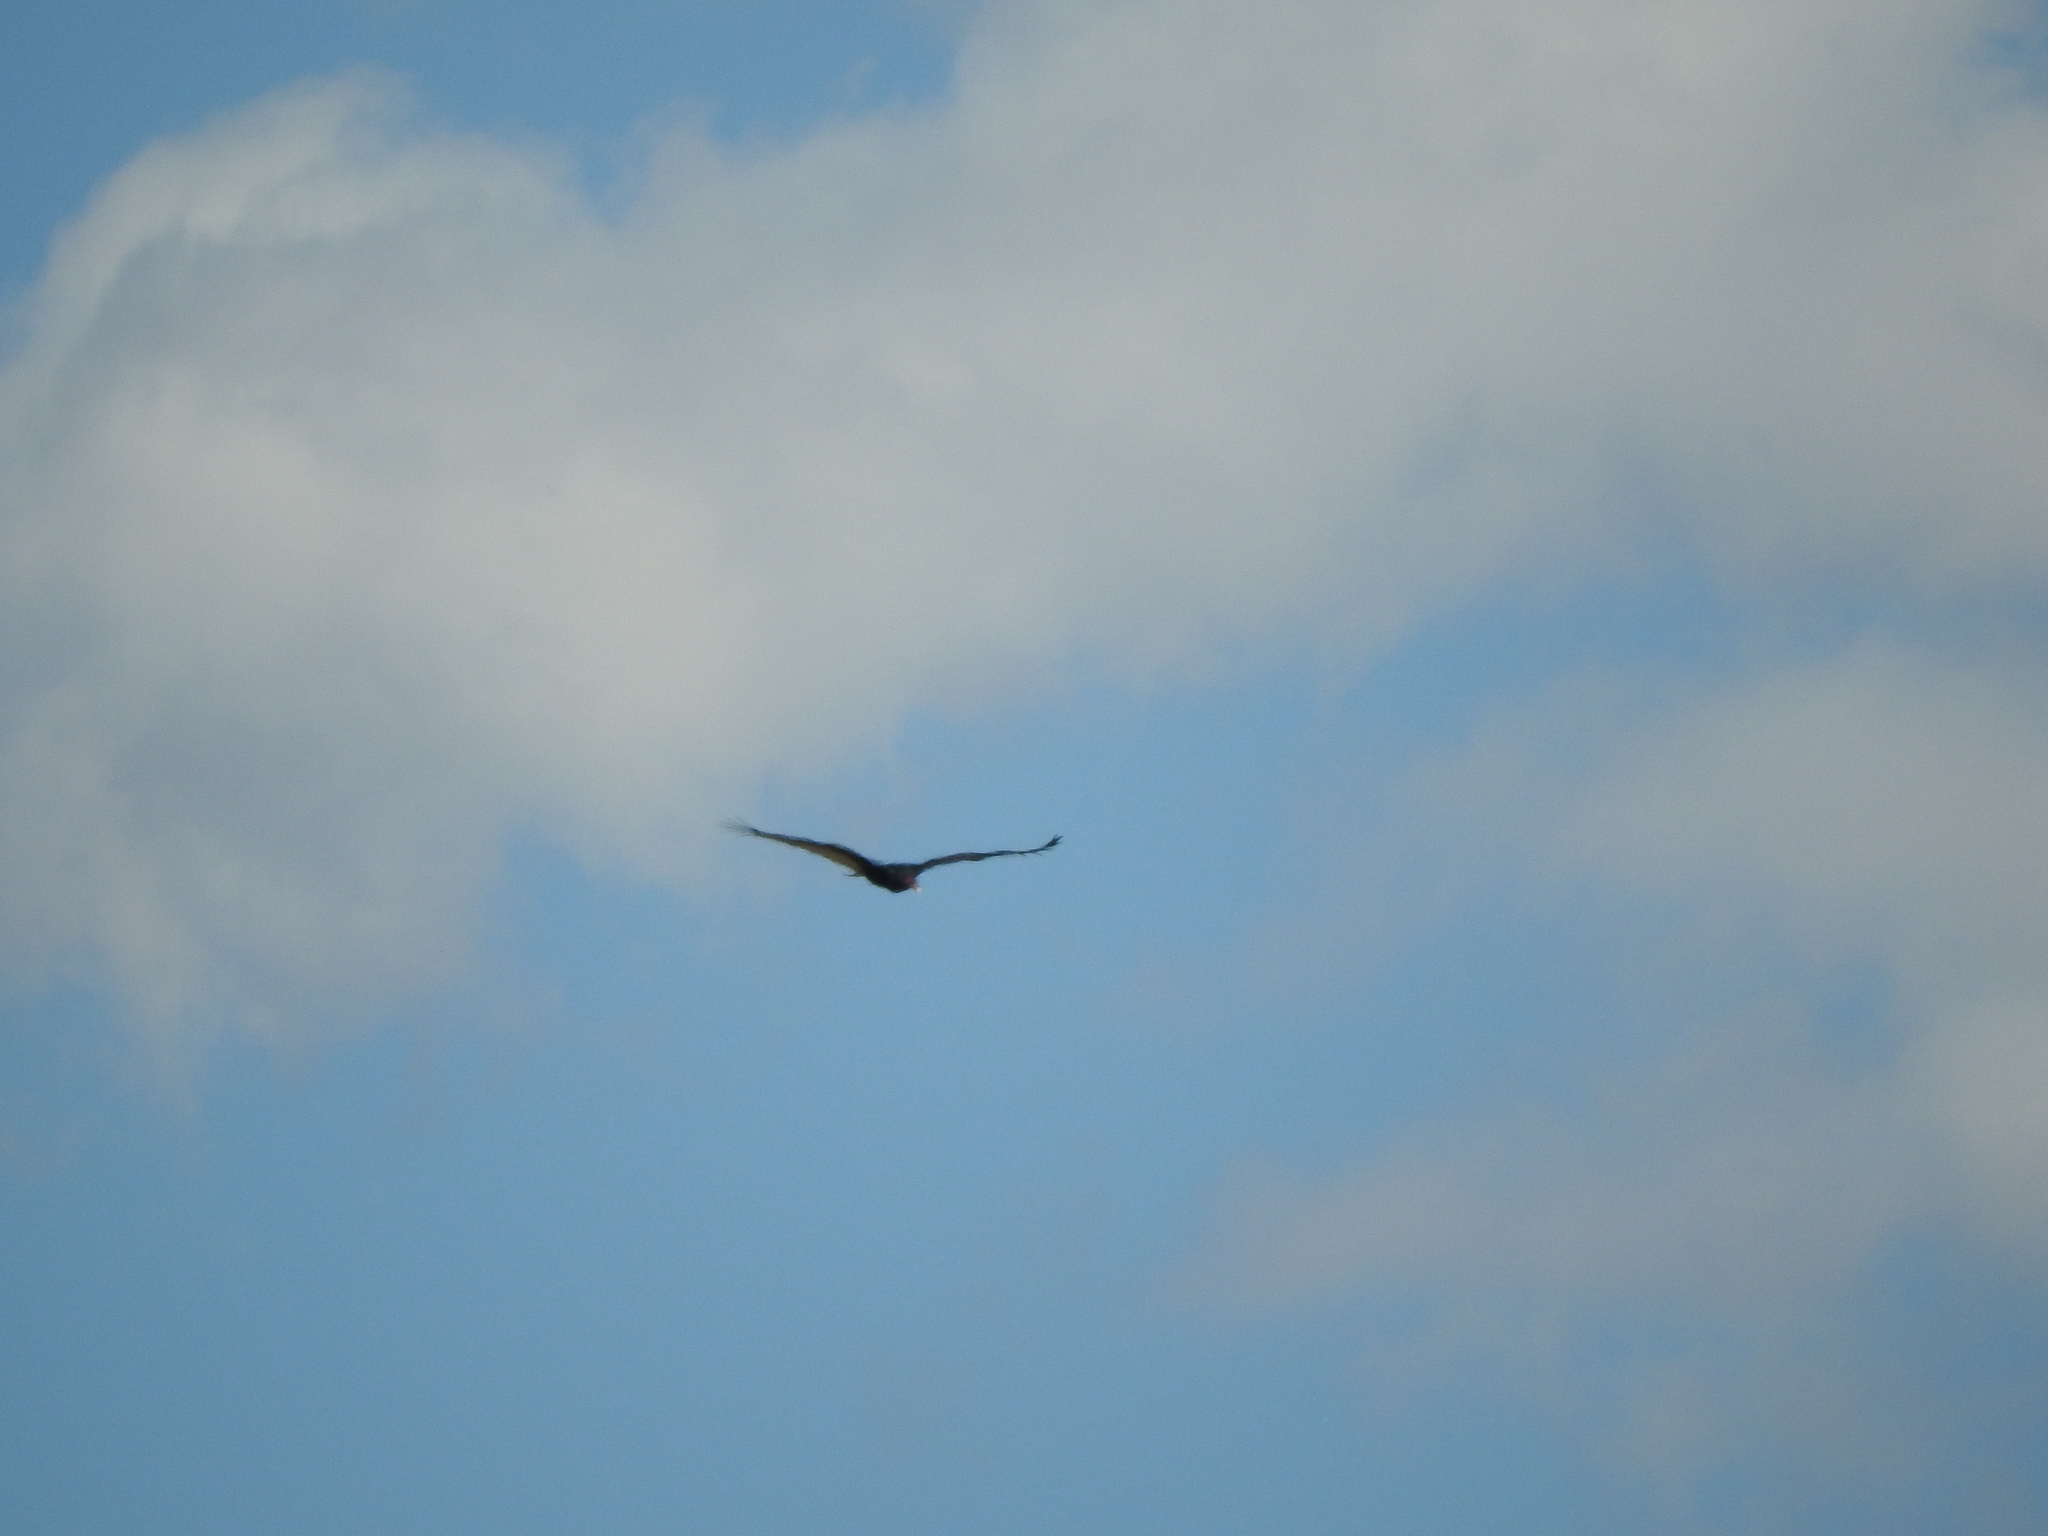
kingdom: Animalia
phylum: Chordata
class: Aves
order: Accipitriformes
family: Cathartidae
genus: Cathartes
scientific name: Cathartes aura
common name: Turkey vulture
